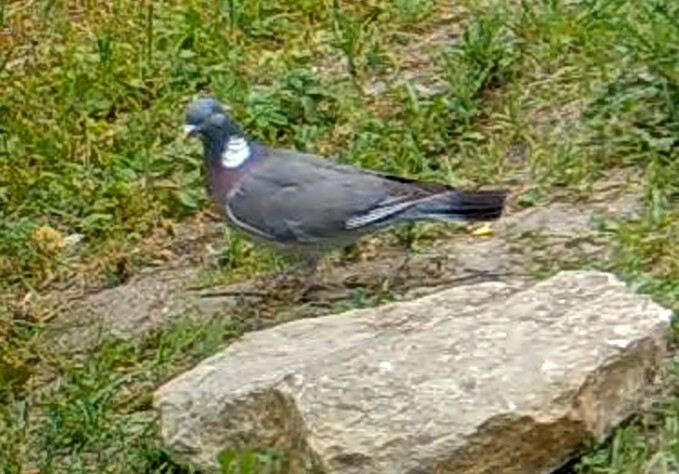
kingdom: Animalia
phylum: Chordata
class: Aves
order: Columbiformes
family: Columbidae
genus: Columba
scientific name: Columba palumbus
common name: Common wood pigeon
